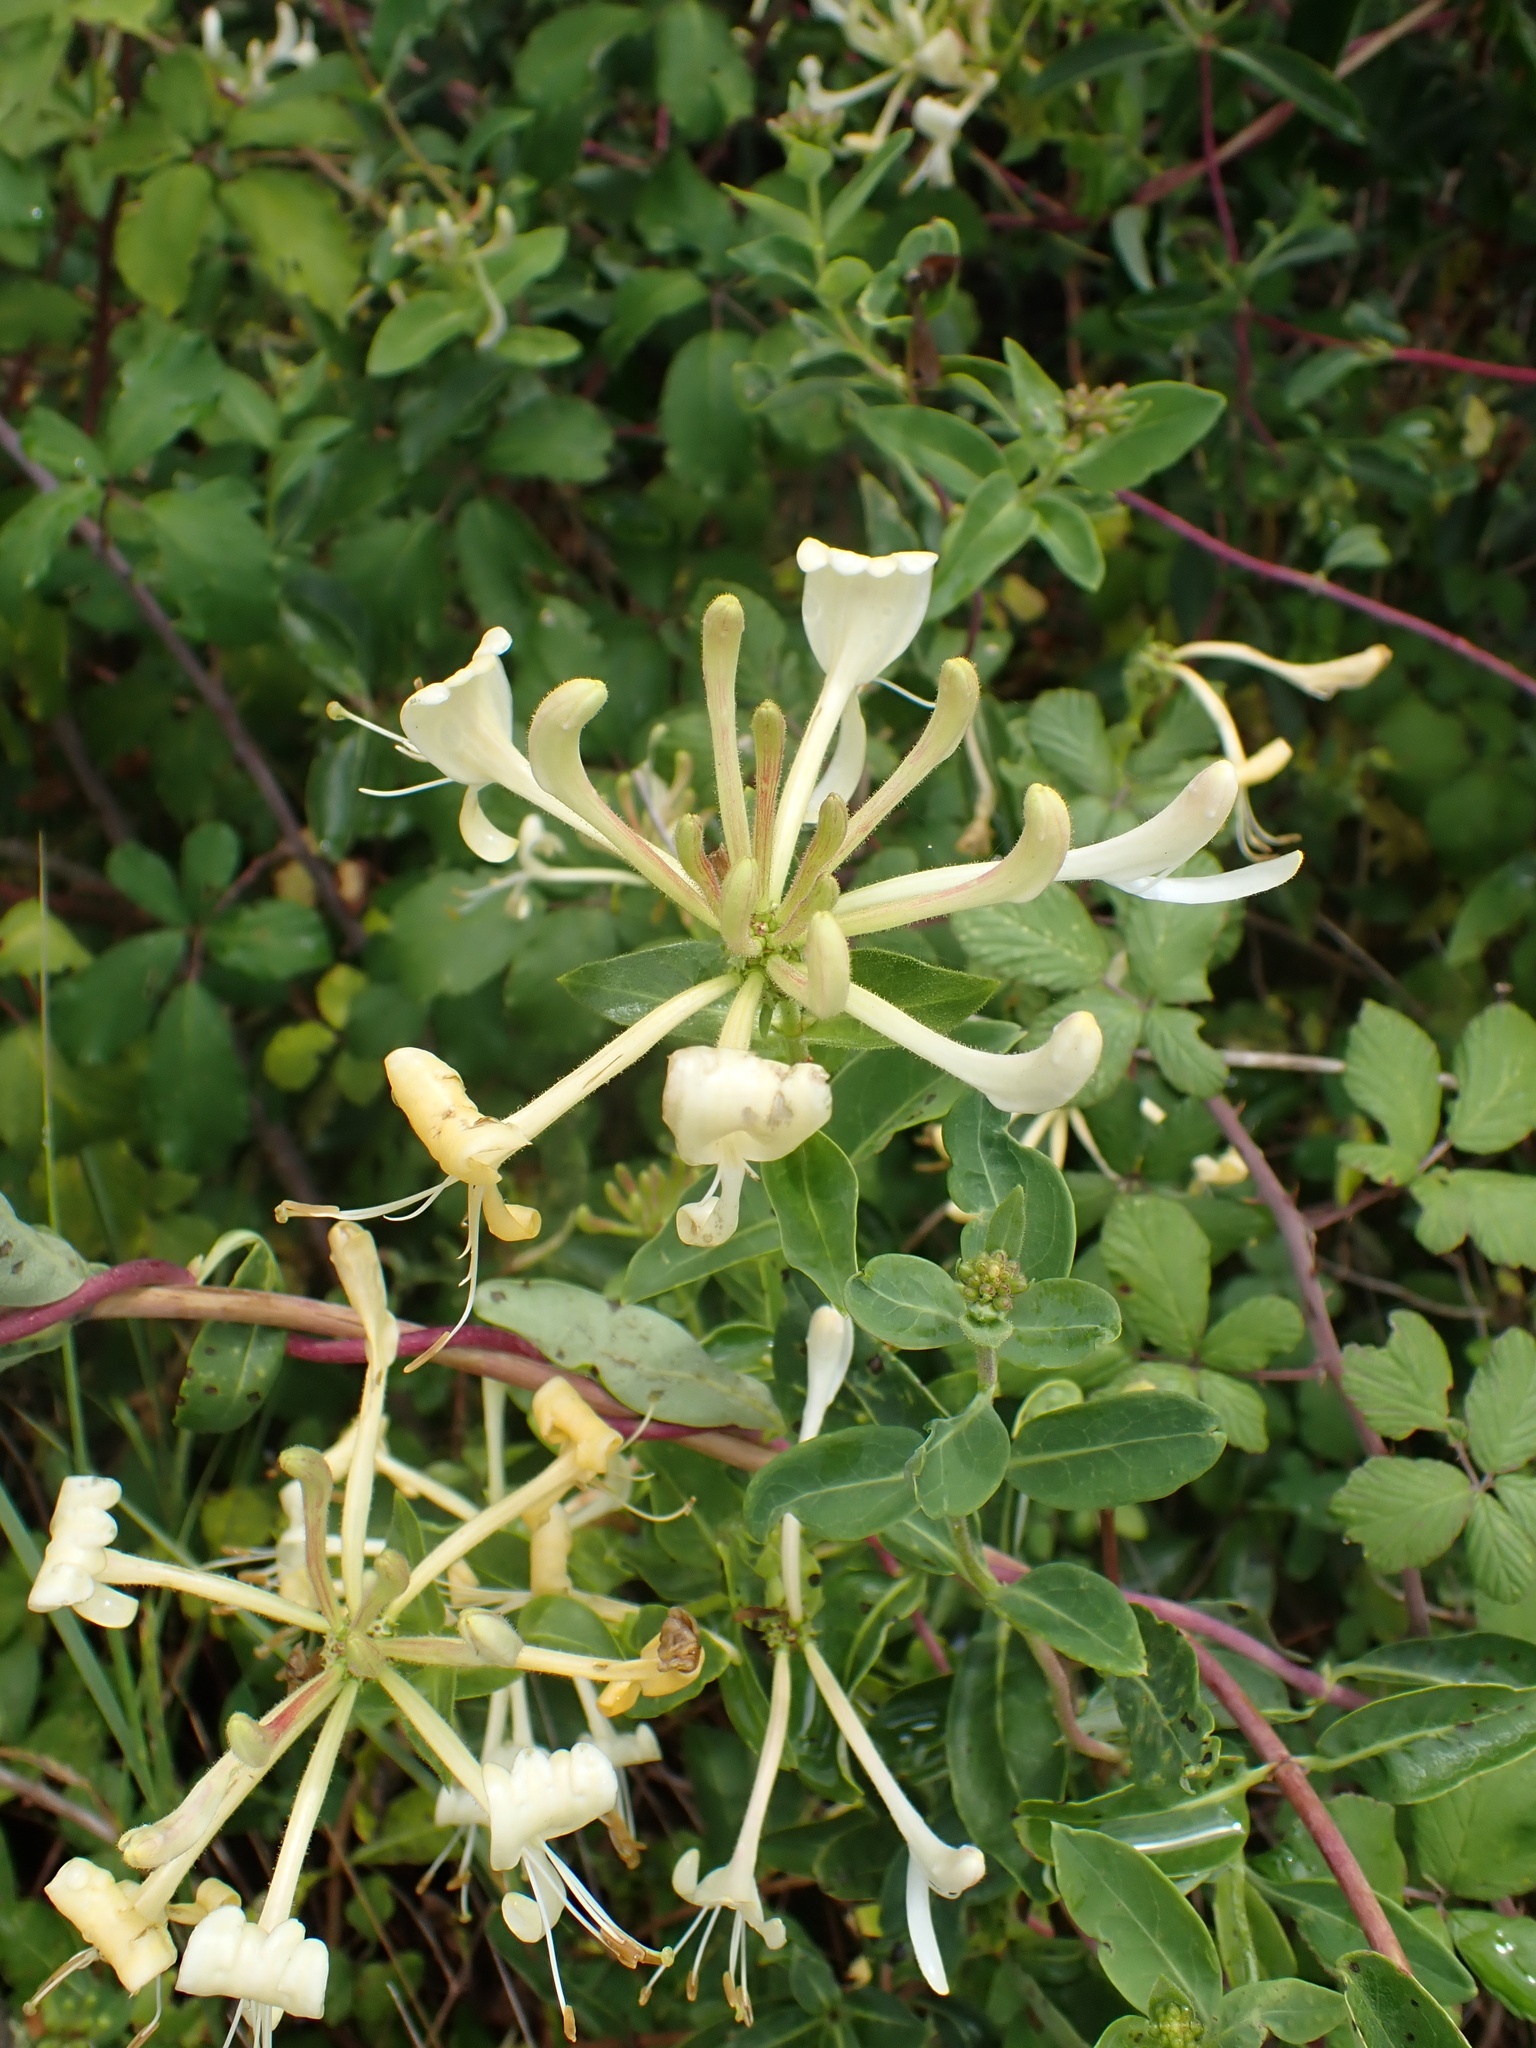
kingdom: Plantae
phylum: Tracheophyta
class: Magnoliopsida
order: Dipsacales
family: Caprifoliaceae
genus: Lonicera
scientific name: Lonicera periclymenum
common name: European honeysuckle
